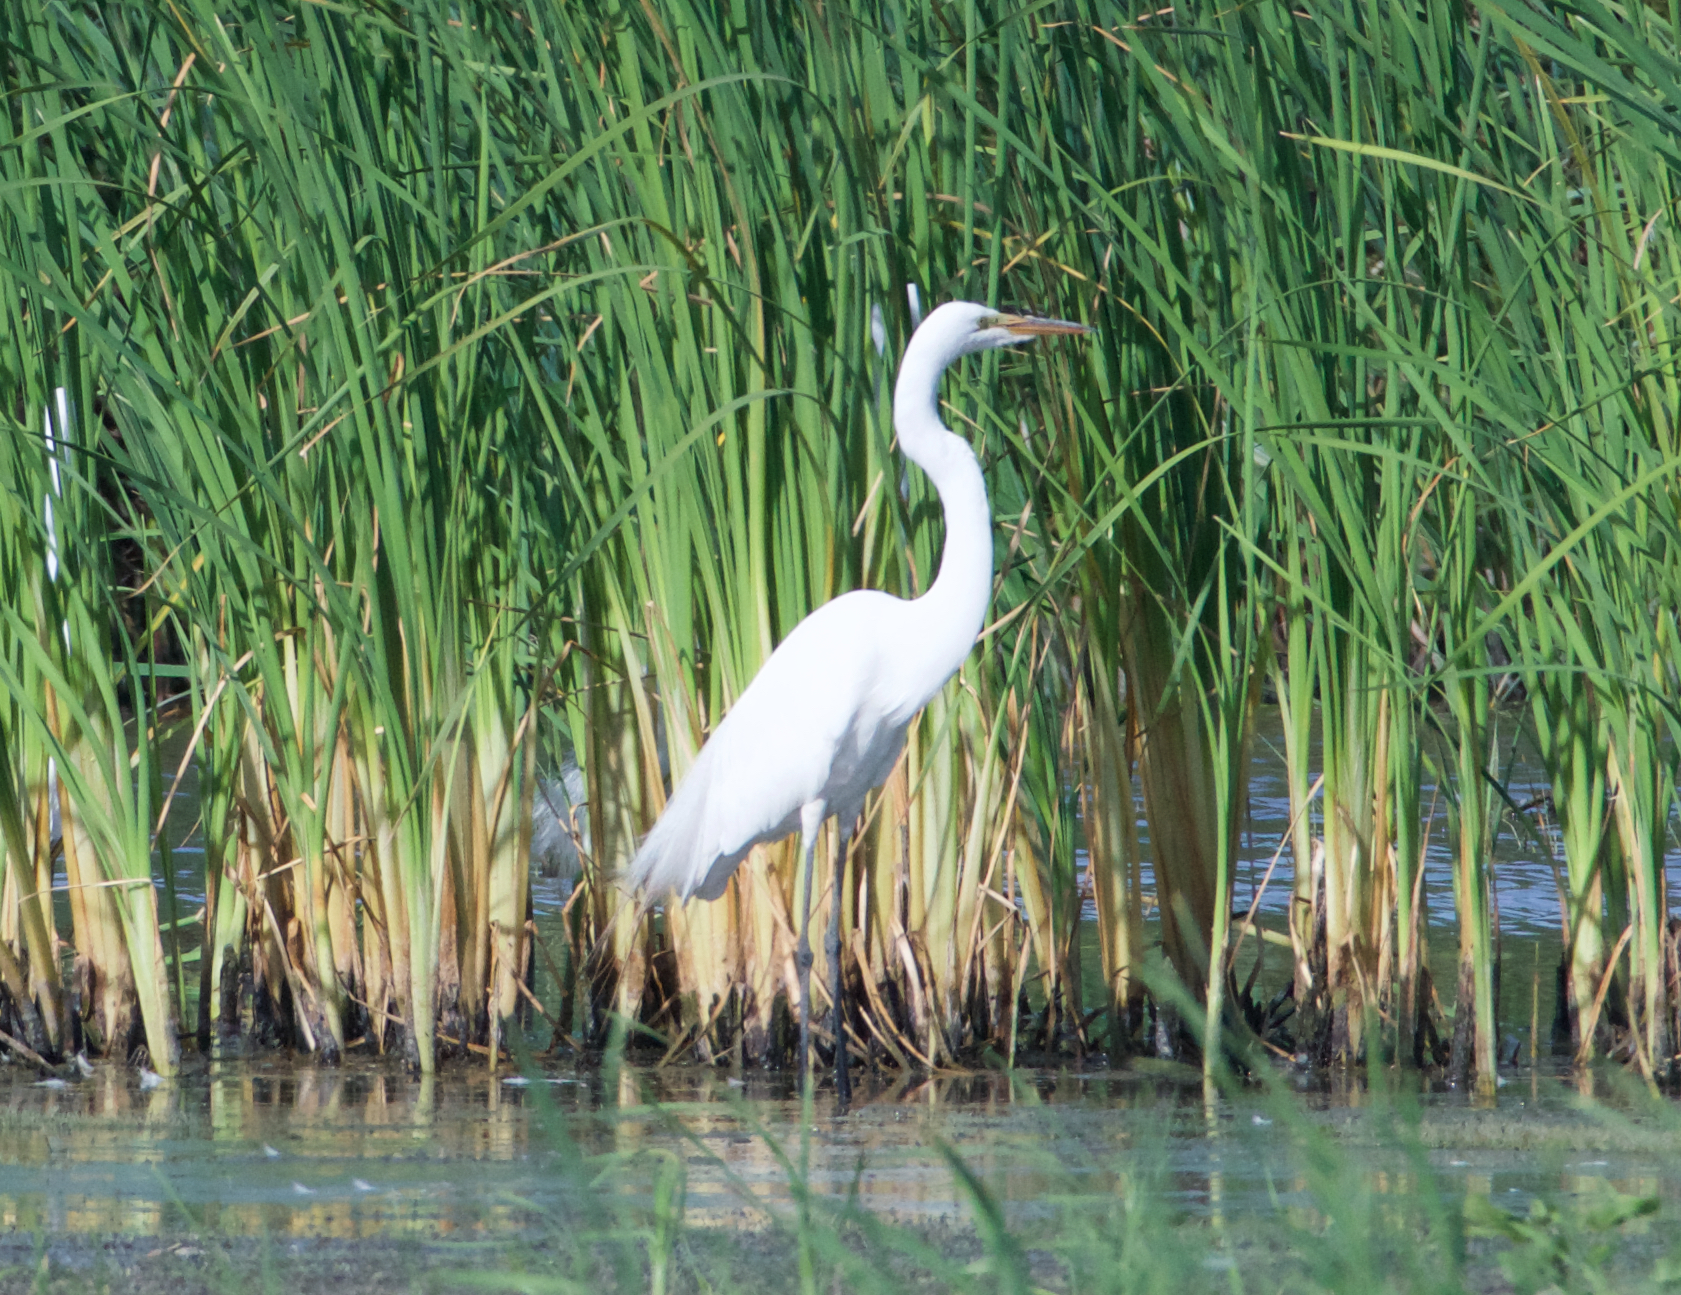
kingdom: Animalia
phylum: Chordata
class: Aves
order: Pelecaniformes
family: Ardeidae
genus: Ardea
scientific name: Ardea alba
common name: Great egret
